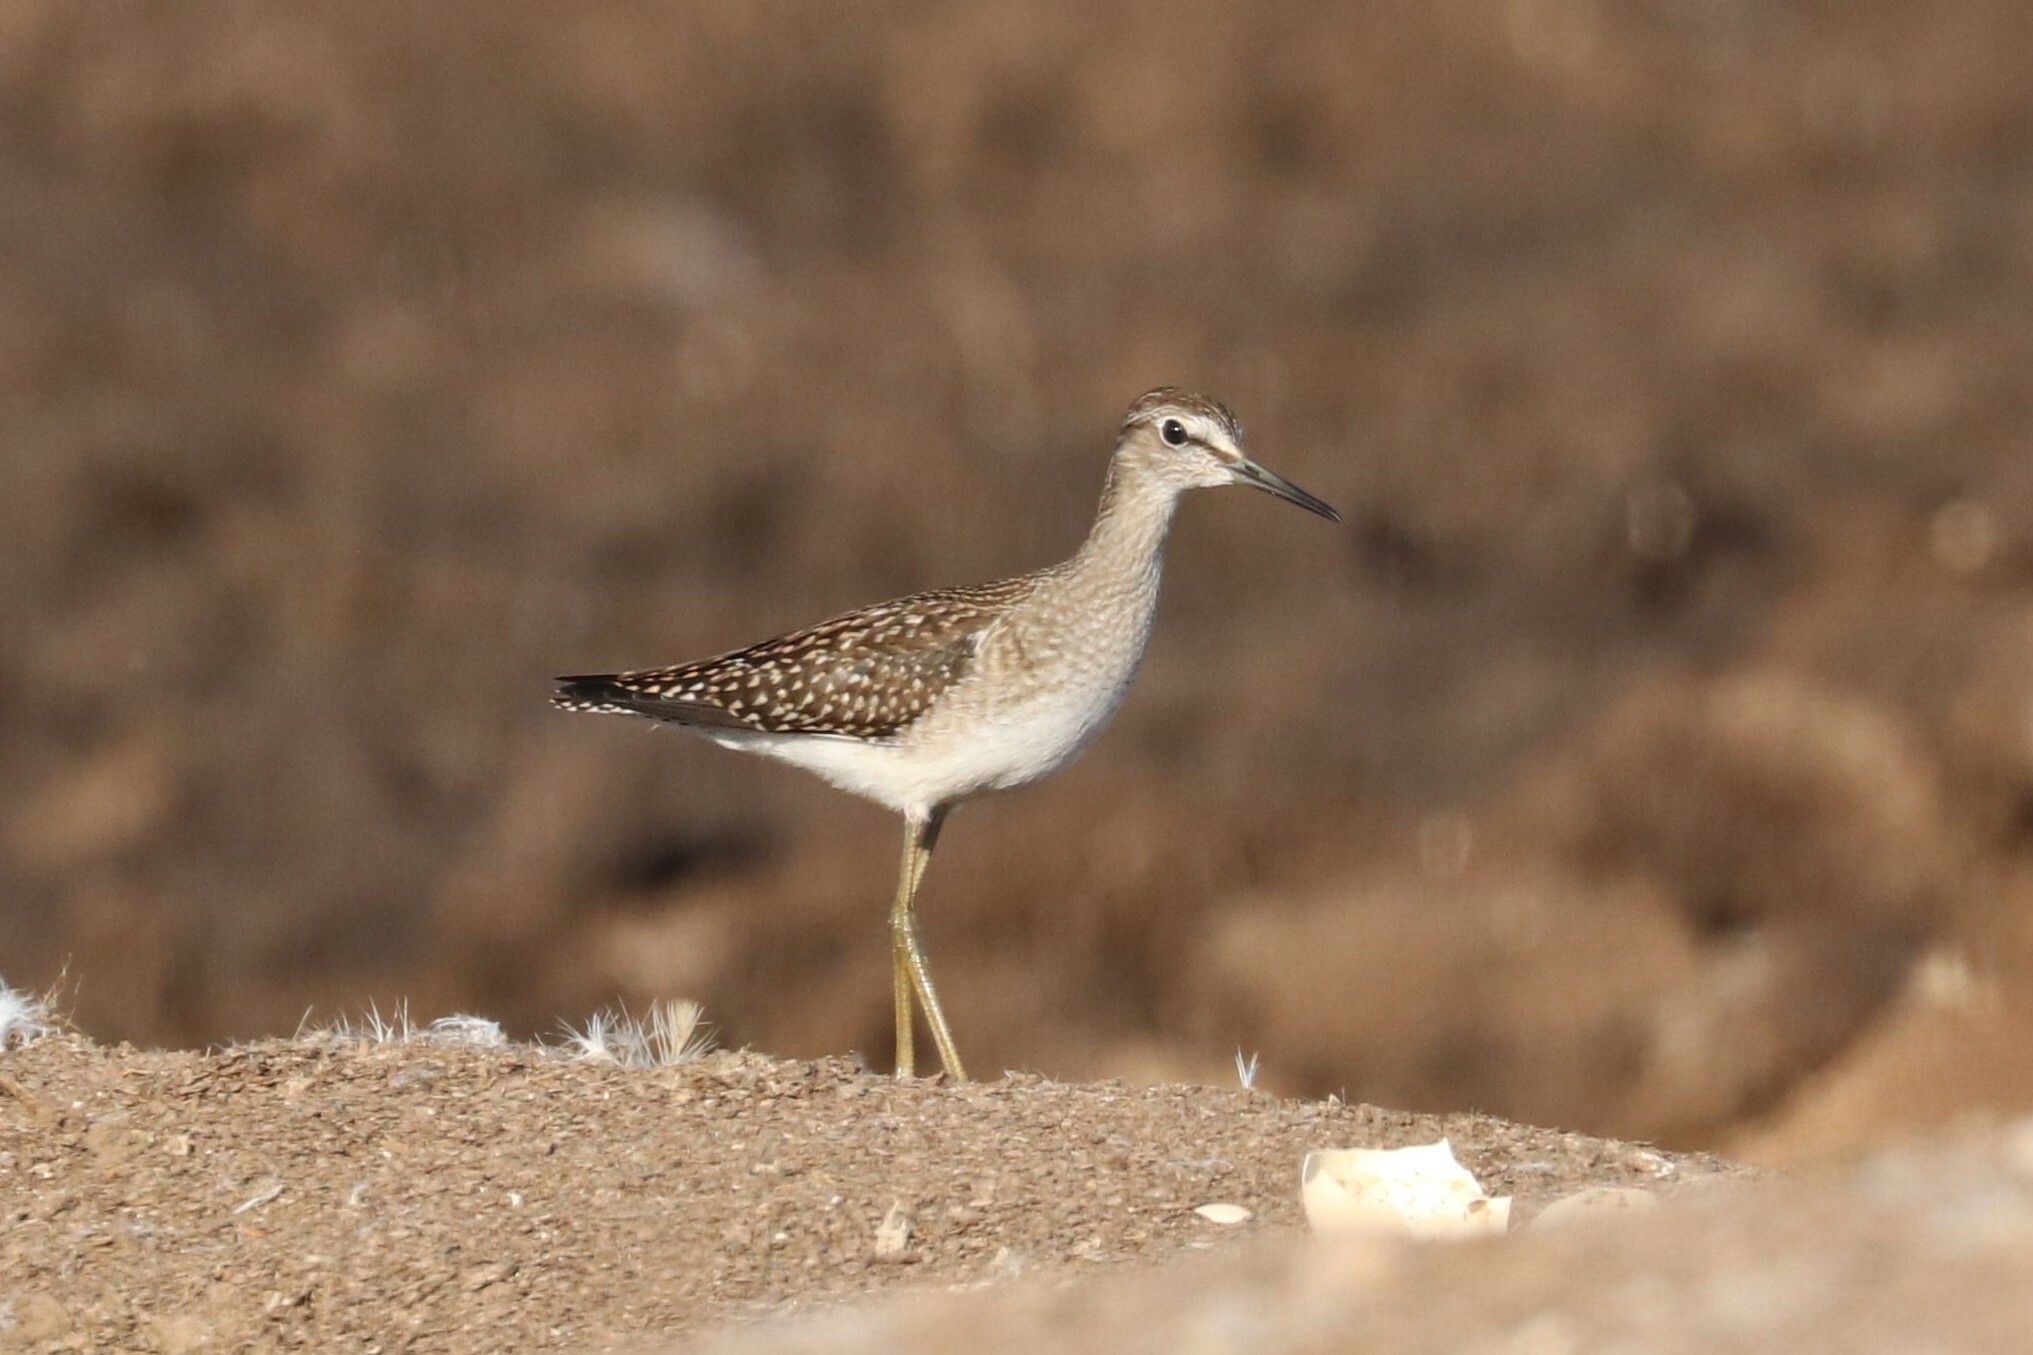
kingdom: Animalia
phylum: Chordata
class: Aves
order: Charadriiformes
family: Scolopacidae
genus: Tringa
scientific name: Tringa glareola
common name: Wood sandpiper
